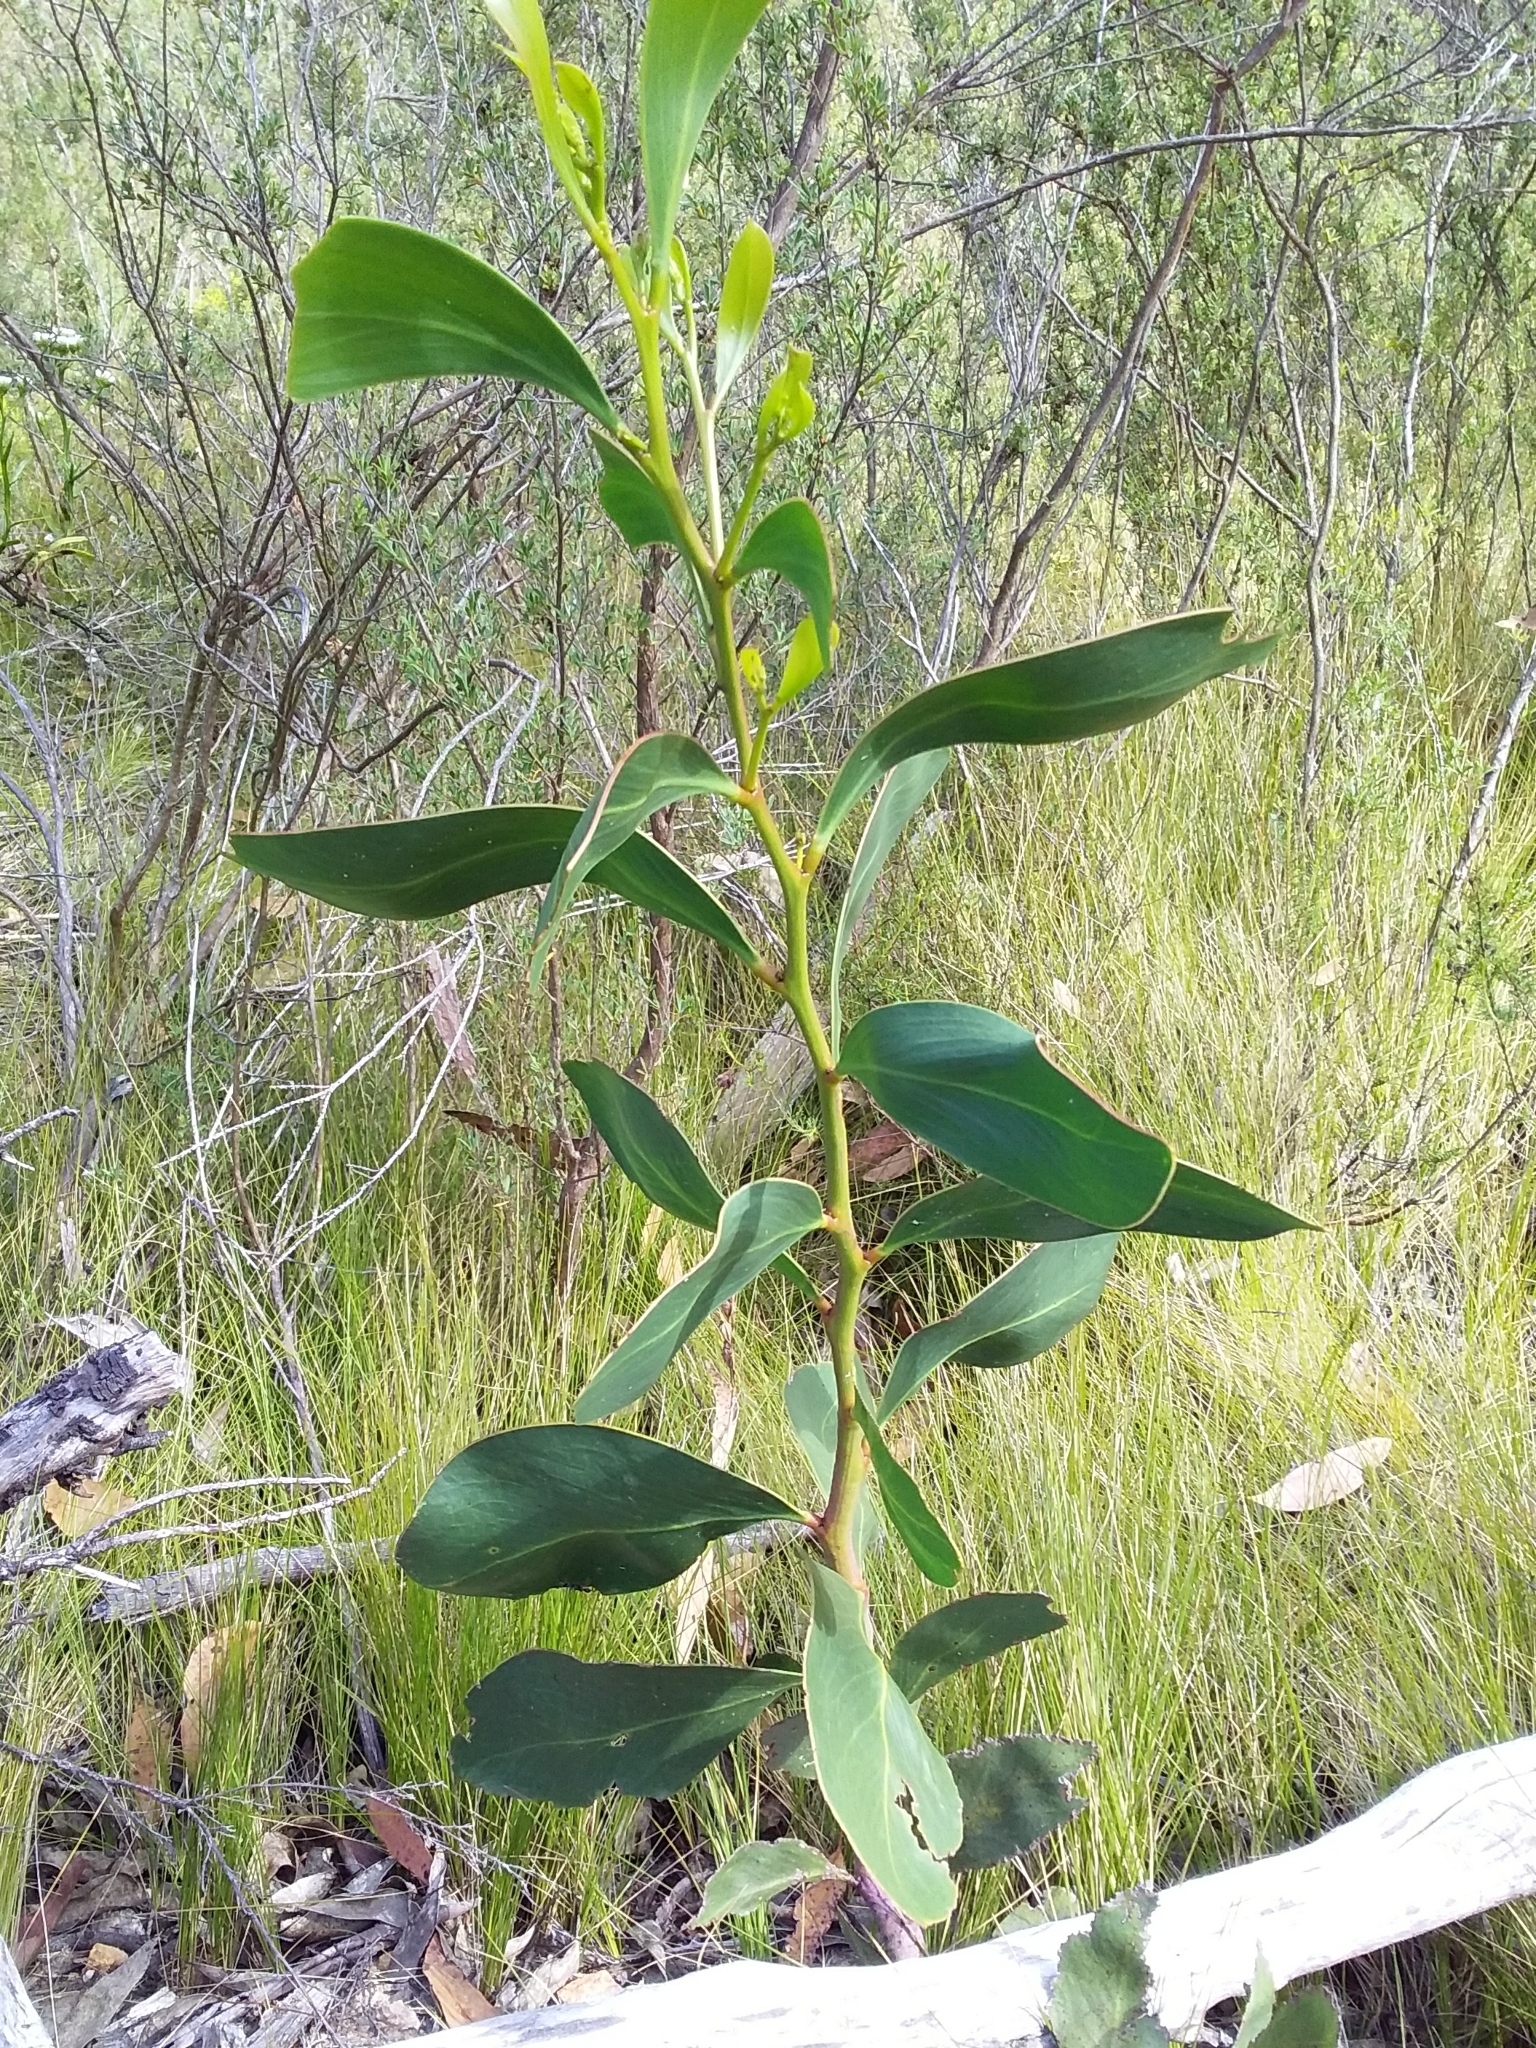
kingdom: Plantae
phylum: Tracheophyta
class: Magnoliopsida
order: Fabales
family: Fabaceae
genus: Acacia
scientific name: Acacia pycnantha
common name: Golden wattle
